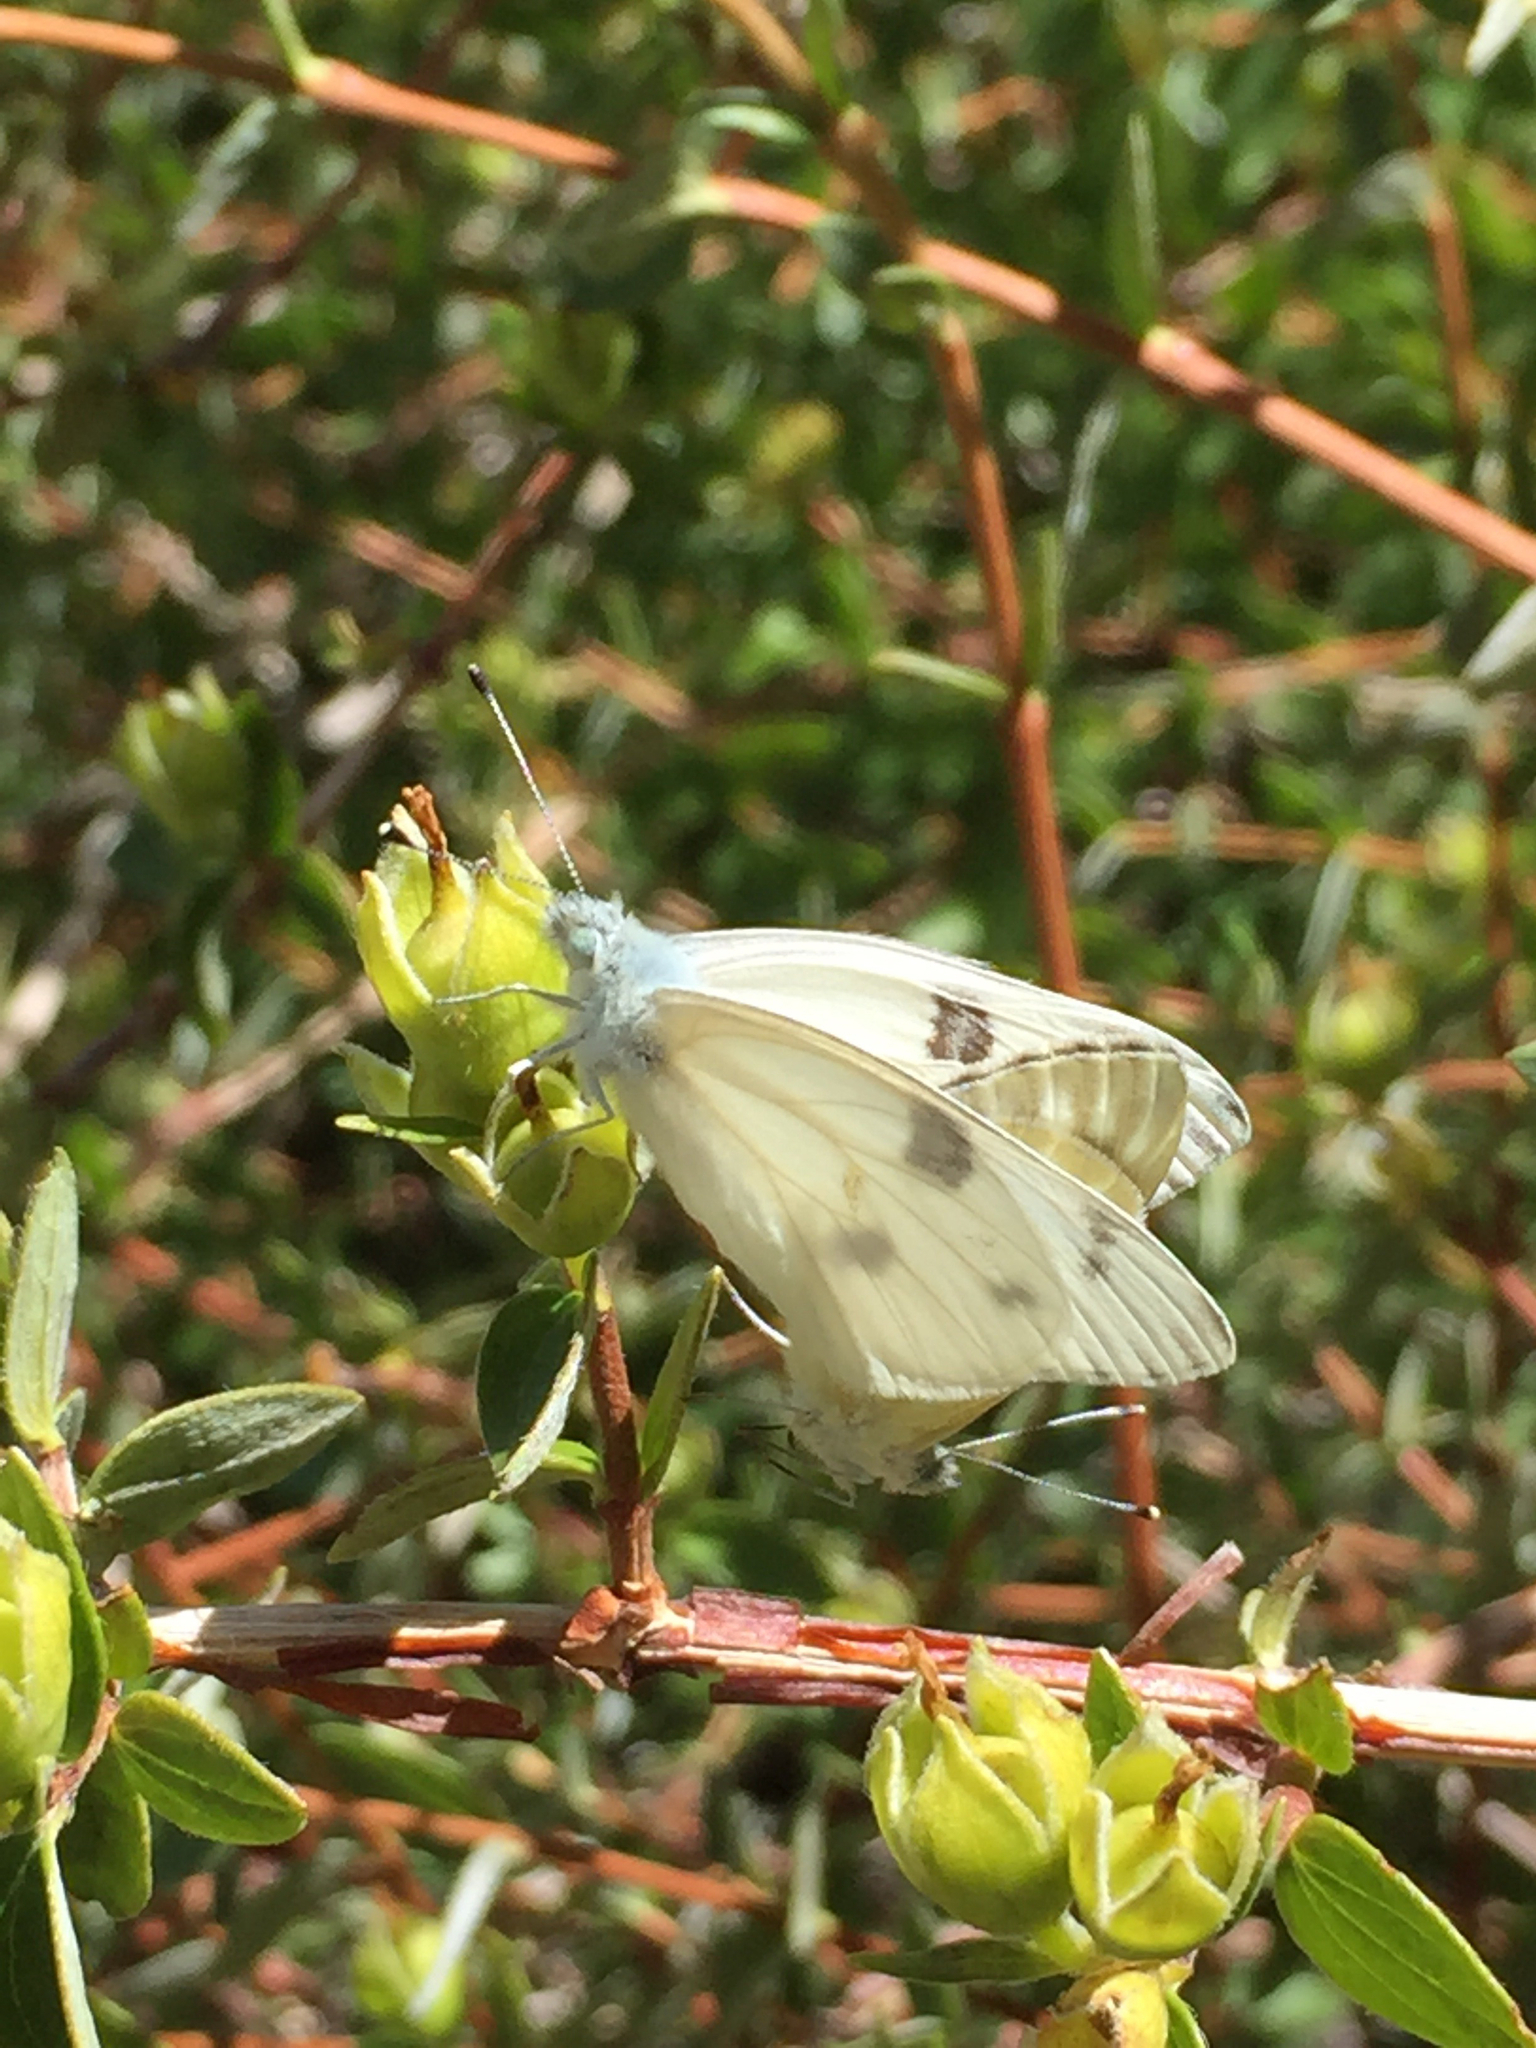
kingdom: Animalia
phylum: Arthropoda
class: Insecta
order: Lepidoptera
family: Pieridae
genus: Pontia
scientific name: Pontia protodice
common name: Checkered white
